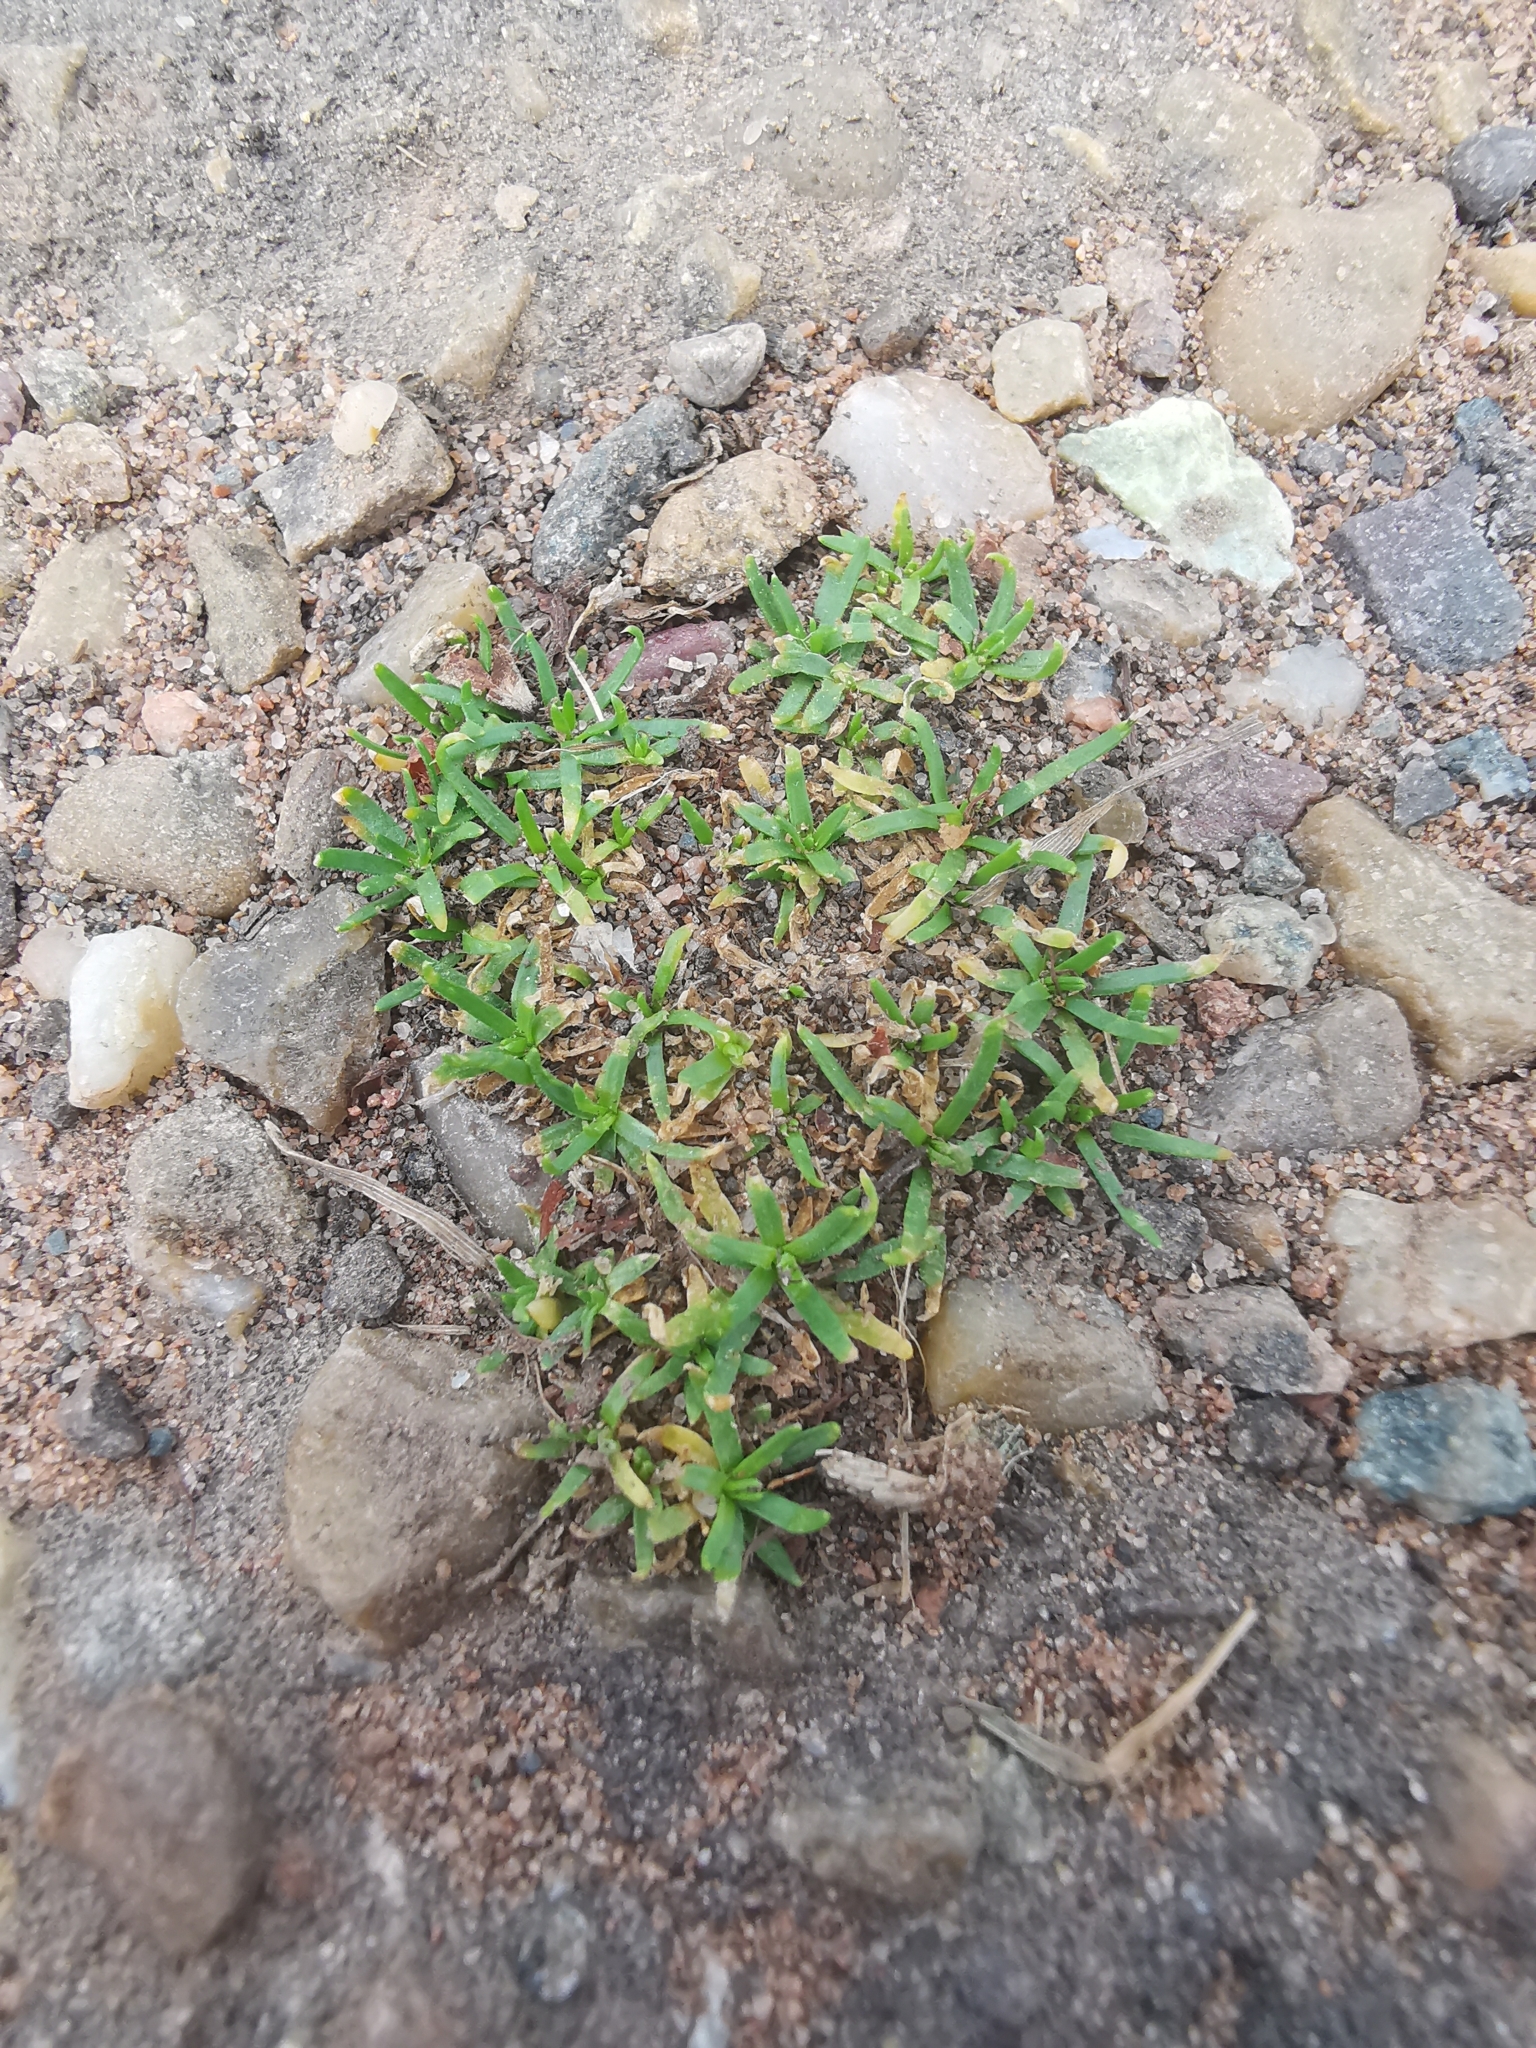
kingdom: Plantae
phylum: Tracheophyta
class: Magnoliopsida
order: Caryophyllales
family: Caryophyllaceae
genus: Sagina
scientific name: Sagina procumbens
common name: Procumbent pearlwort
